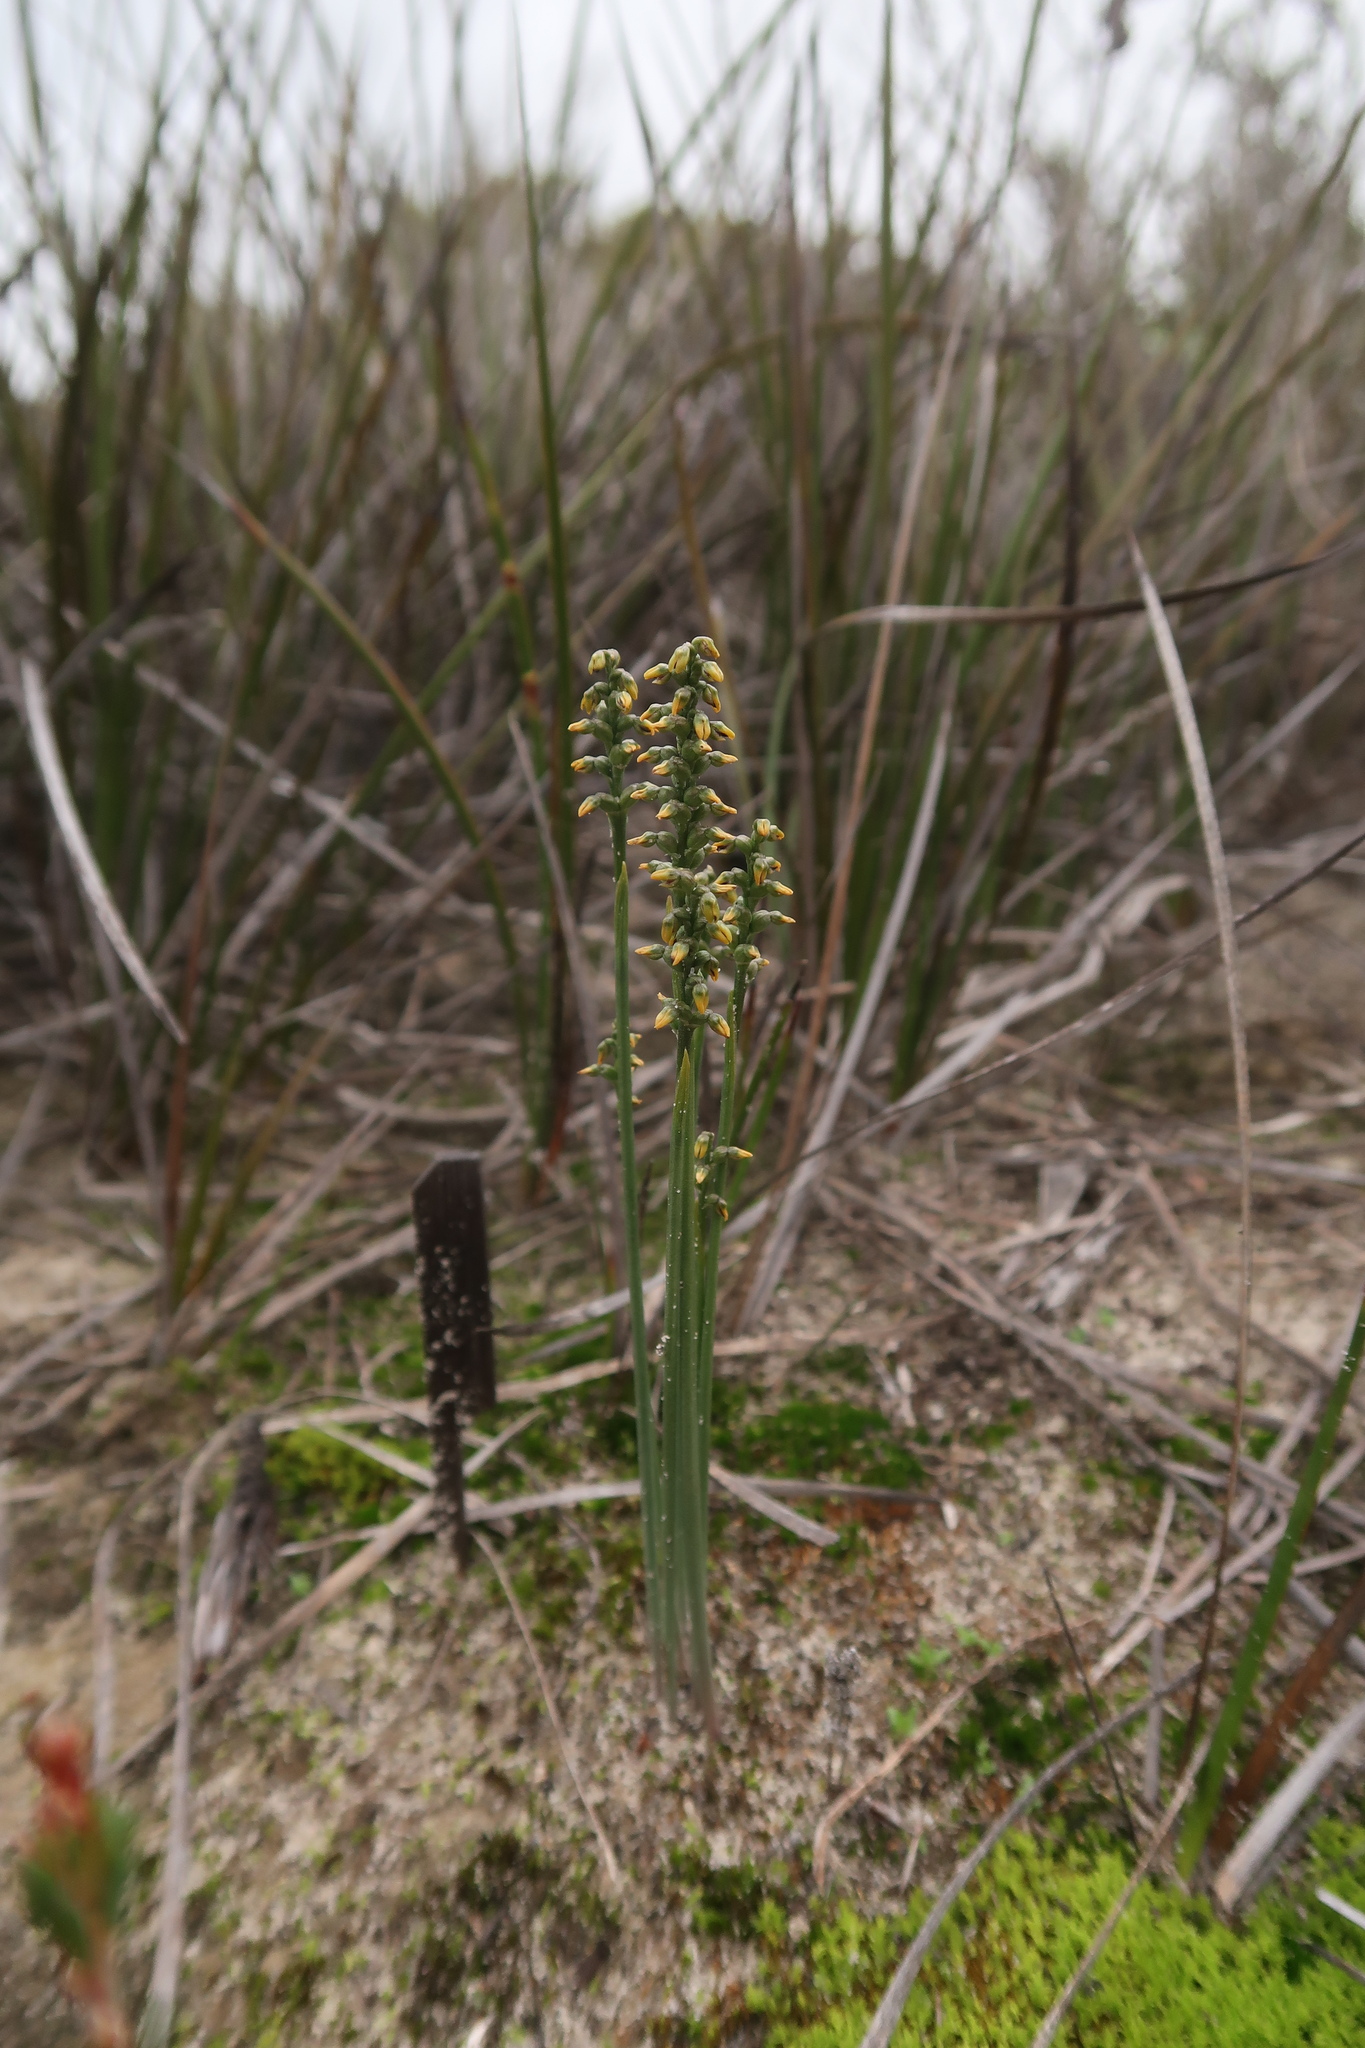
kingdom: Plantae
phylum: Tracheophyta
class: Liliopsida
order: Asparagales
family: Orchidaceae
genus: Genoplesium
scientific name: Genoplesium
